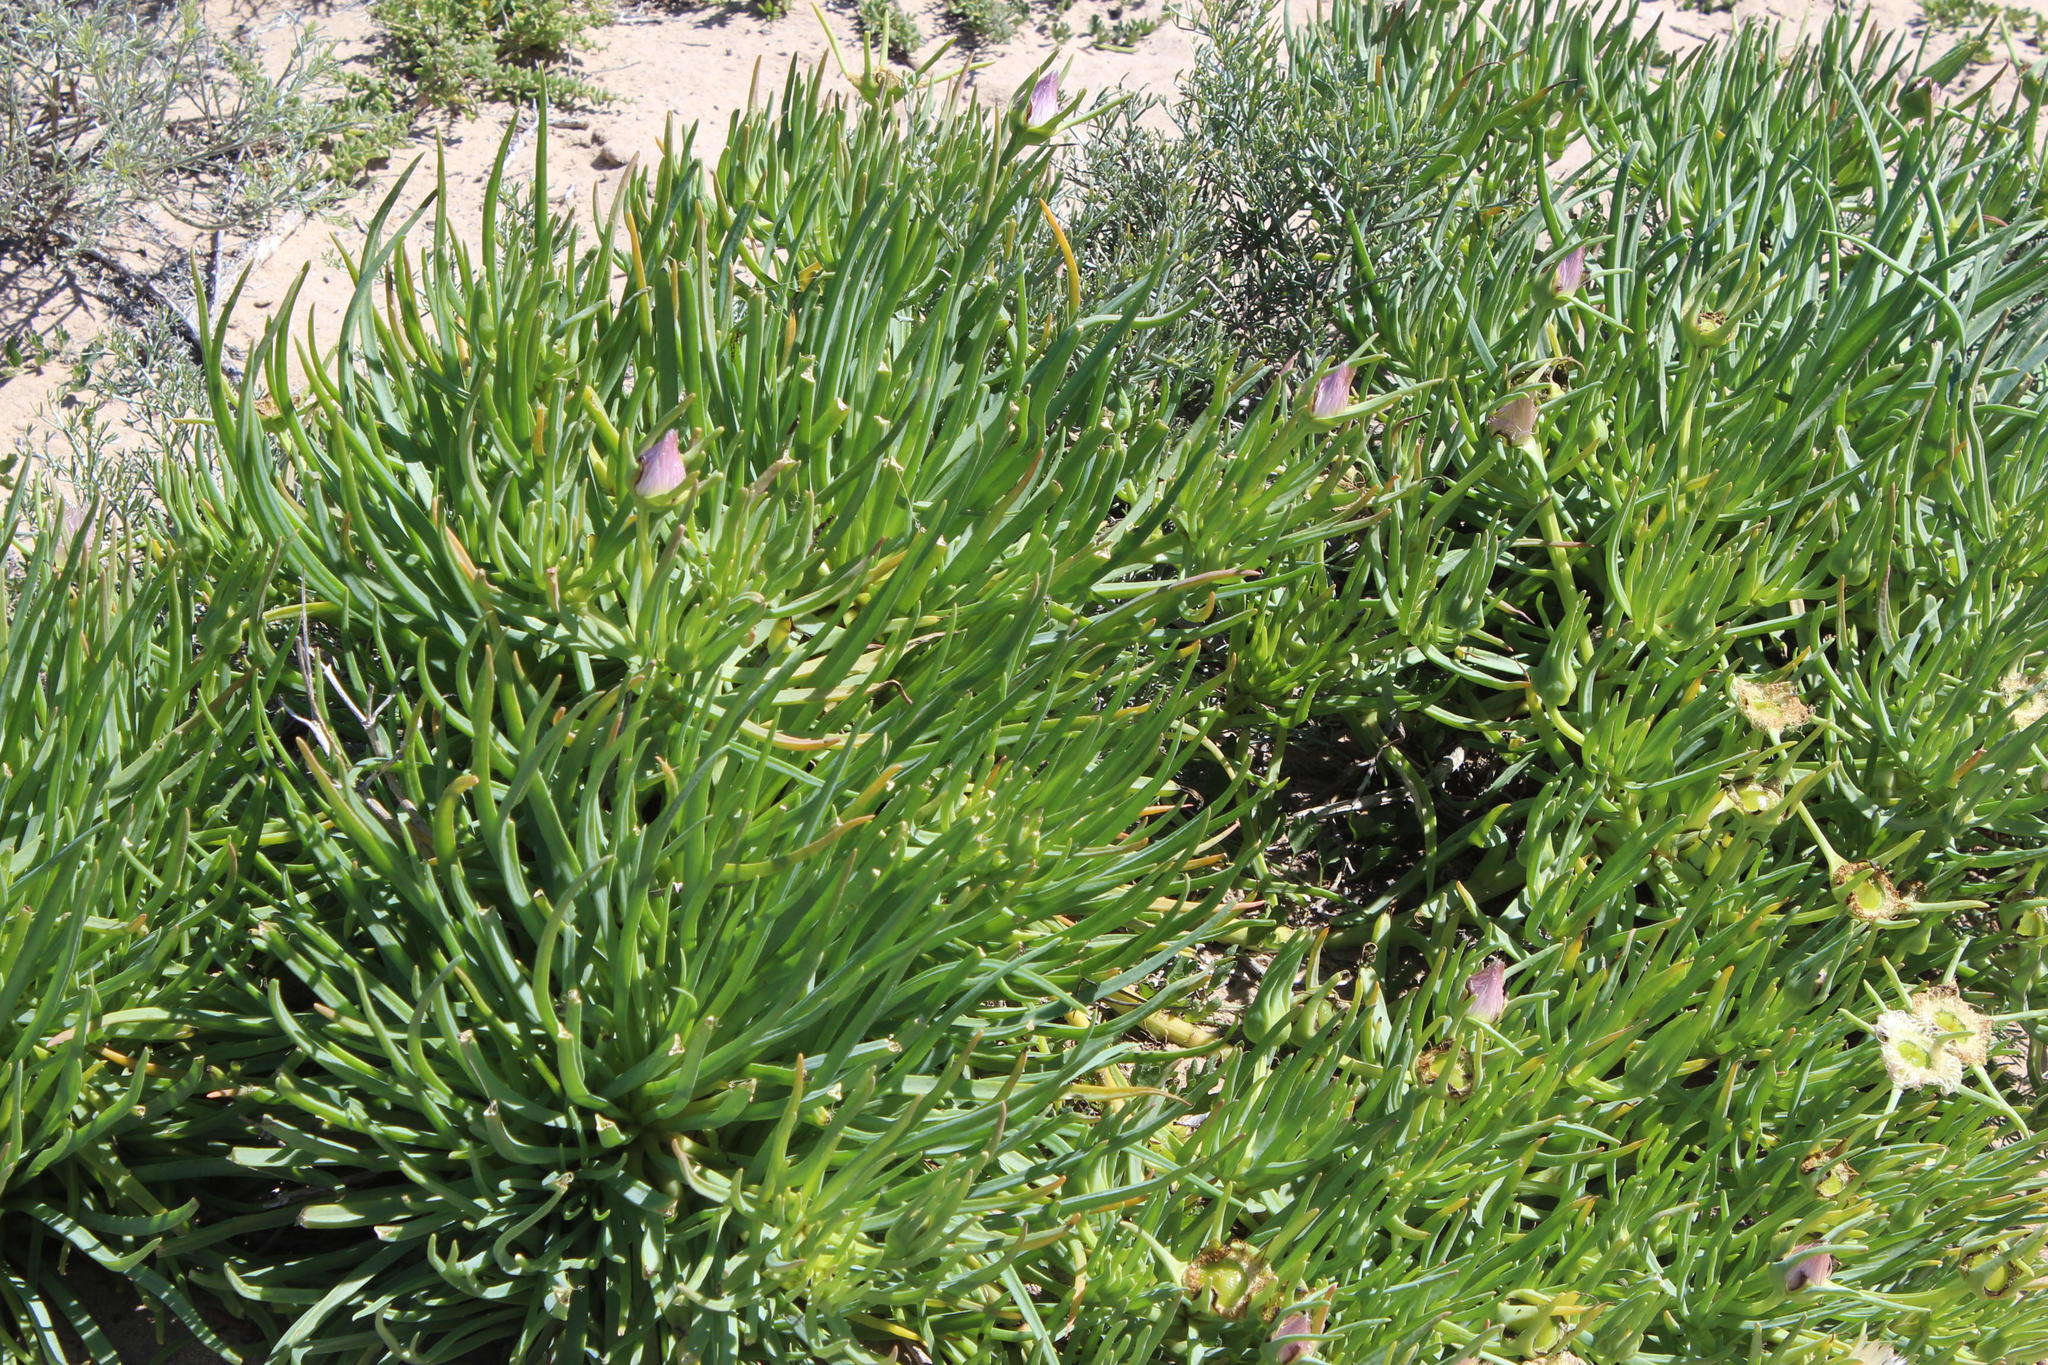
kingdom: Plantae
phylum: Tracheophyta
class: Magnoliopsida
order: Caryophyllales
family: Aizoaceae
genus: Conicosia
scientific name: Conicosia pugioniformis
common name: Narrow-leaved iceplant
